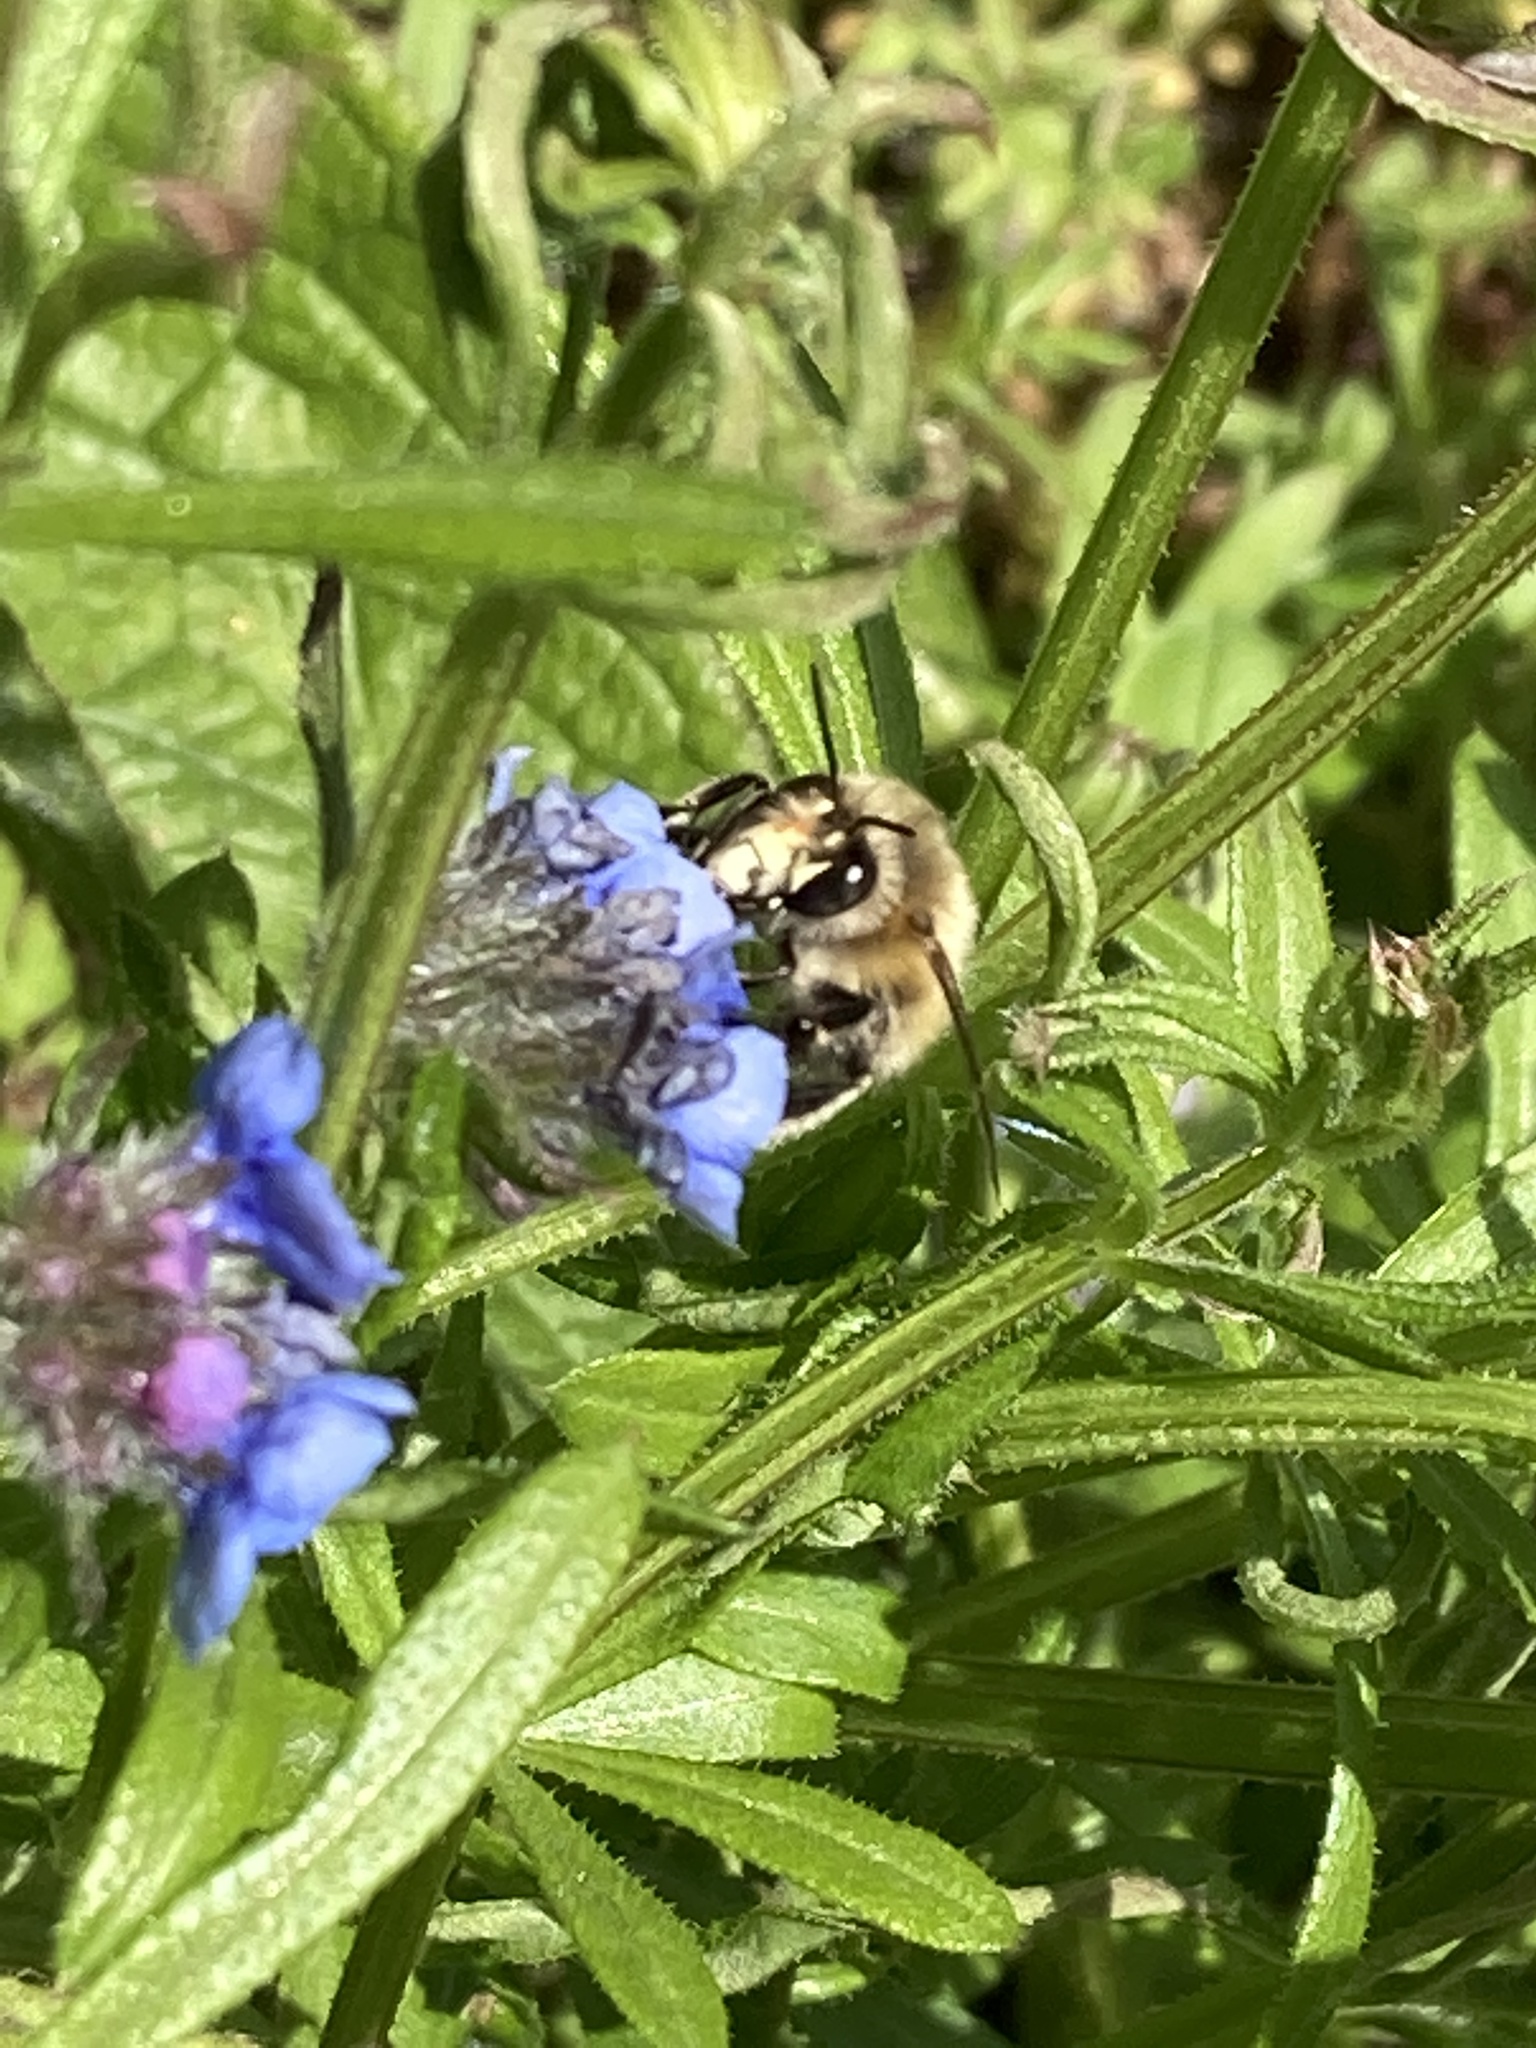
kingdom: Animalia
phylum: Arthropoda
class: Insecta
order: Hymenoptera
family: Apidae
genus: Anthophora
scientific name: Anthophora plumipes
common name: Hairy-footed flower bee
